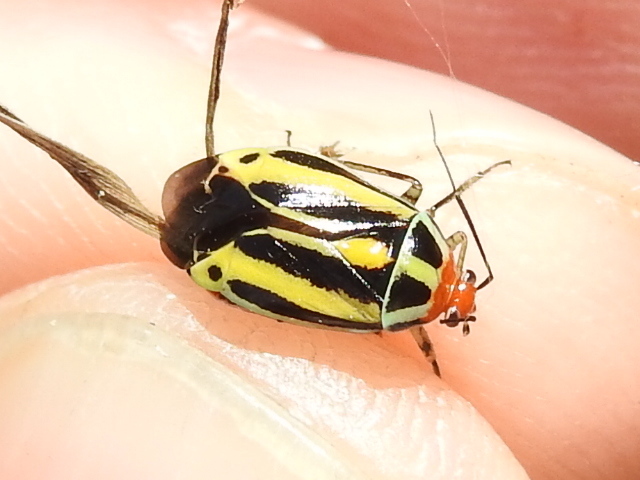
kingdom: Animalia
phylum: Arthropoda
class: Insecta
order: Hemiptera
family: Miridae
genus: Poecilocapsus
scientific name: Poecilocapsus lineatus
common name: Four-lined plant bug
